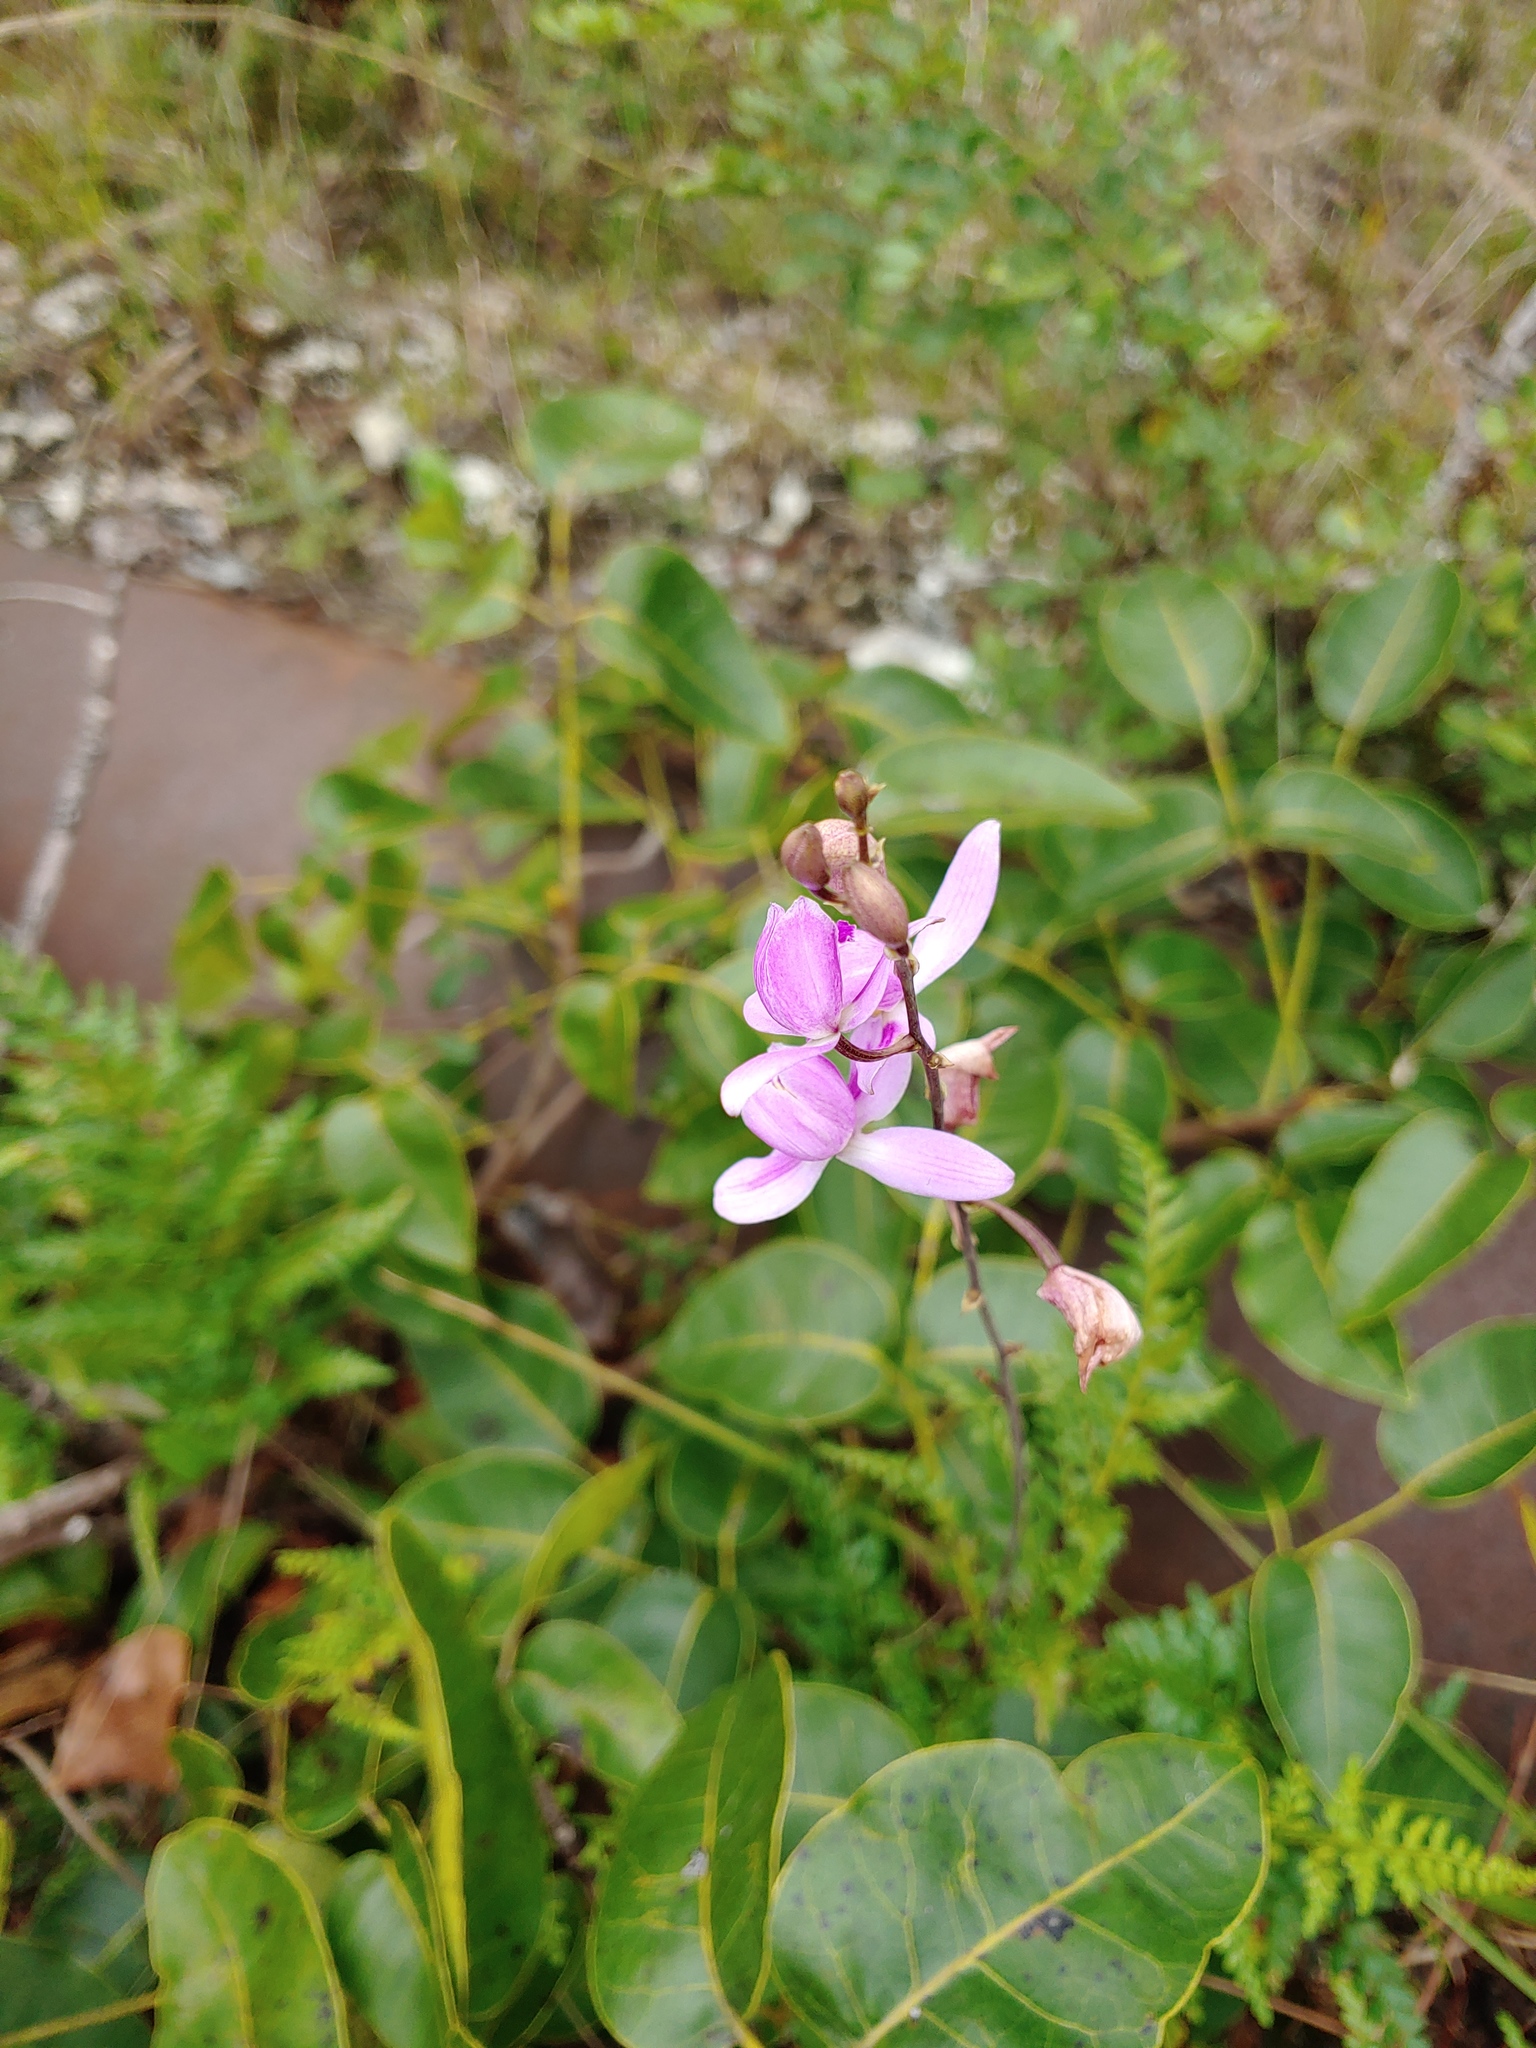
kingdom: Plantae
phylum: Tracheophyta
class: Liliopsida
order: Asparagales
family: Orchidaceae
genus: Bletia
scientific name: Bletia purpurea
